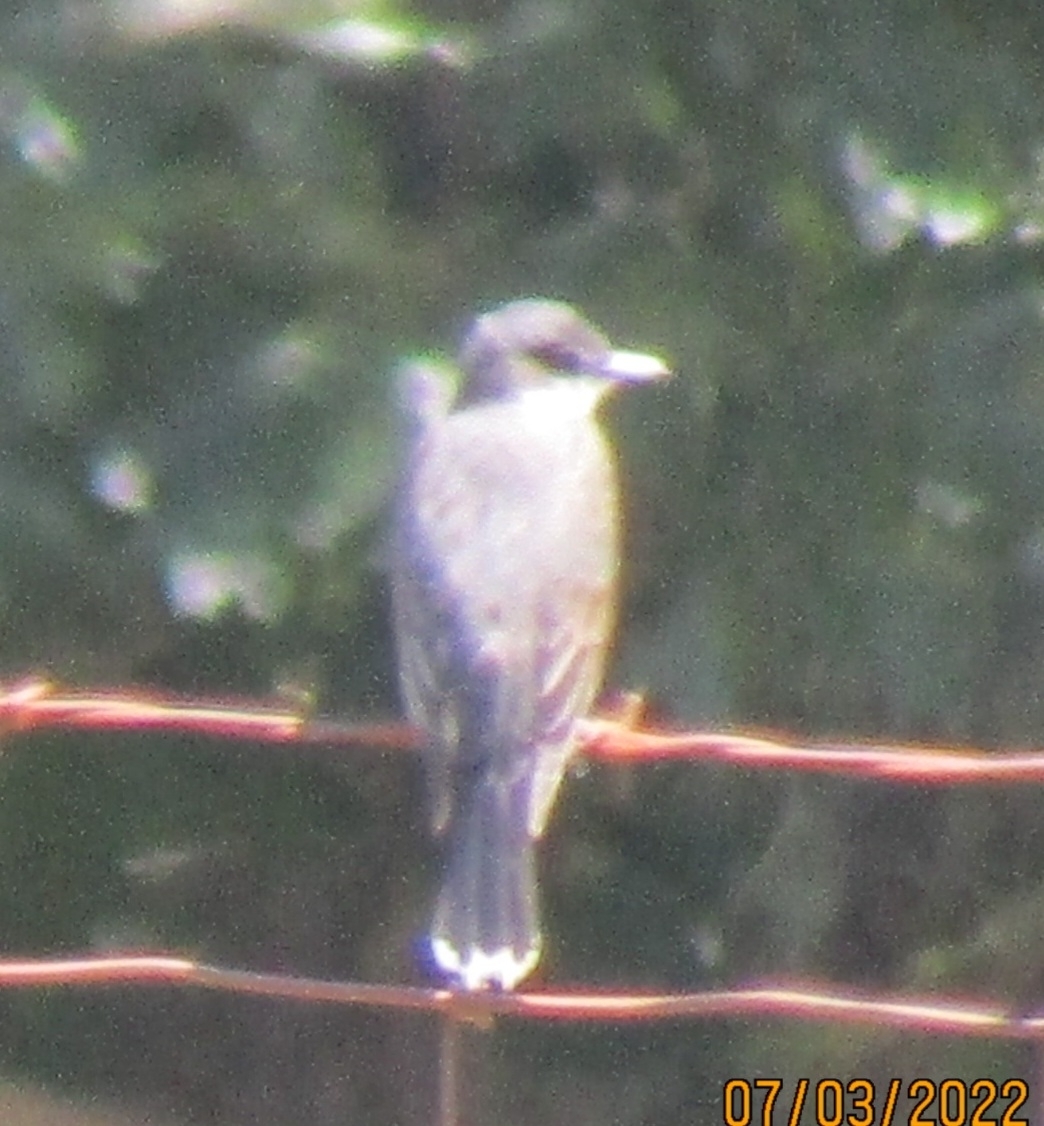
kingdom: Animalia
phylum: Chordata
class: Aves
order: Passeriformes
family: Tyrannidae
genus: Tyrannus
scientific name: Tyrannus tyrannus
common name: Eastern kingbird
